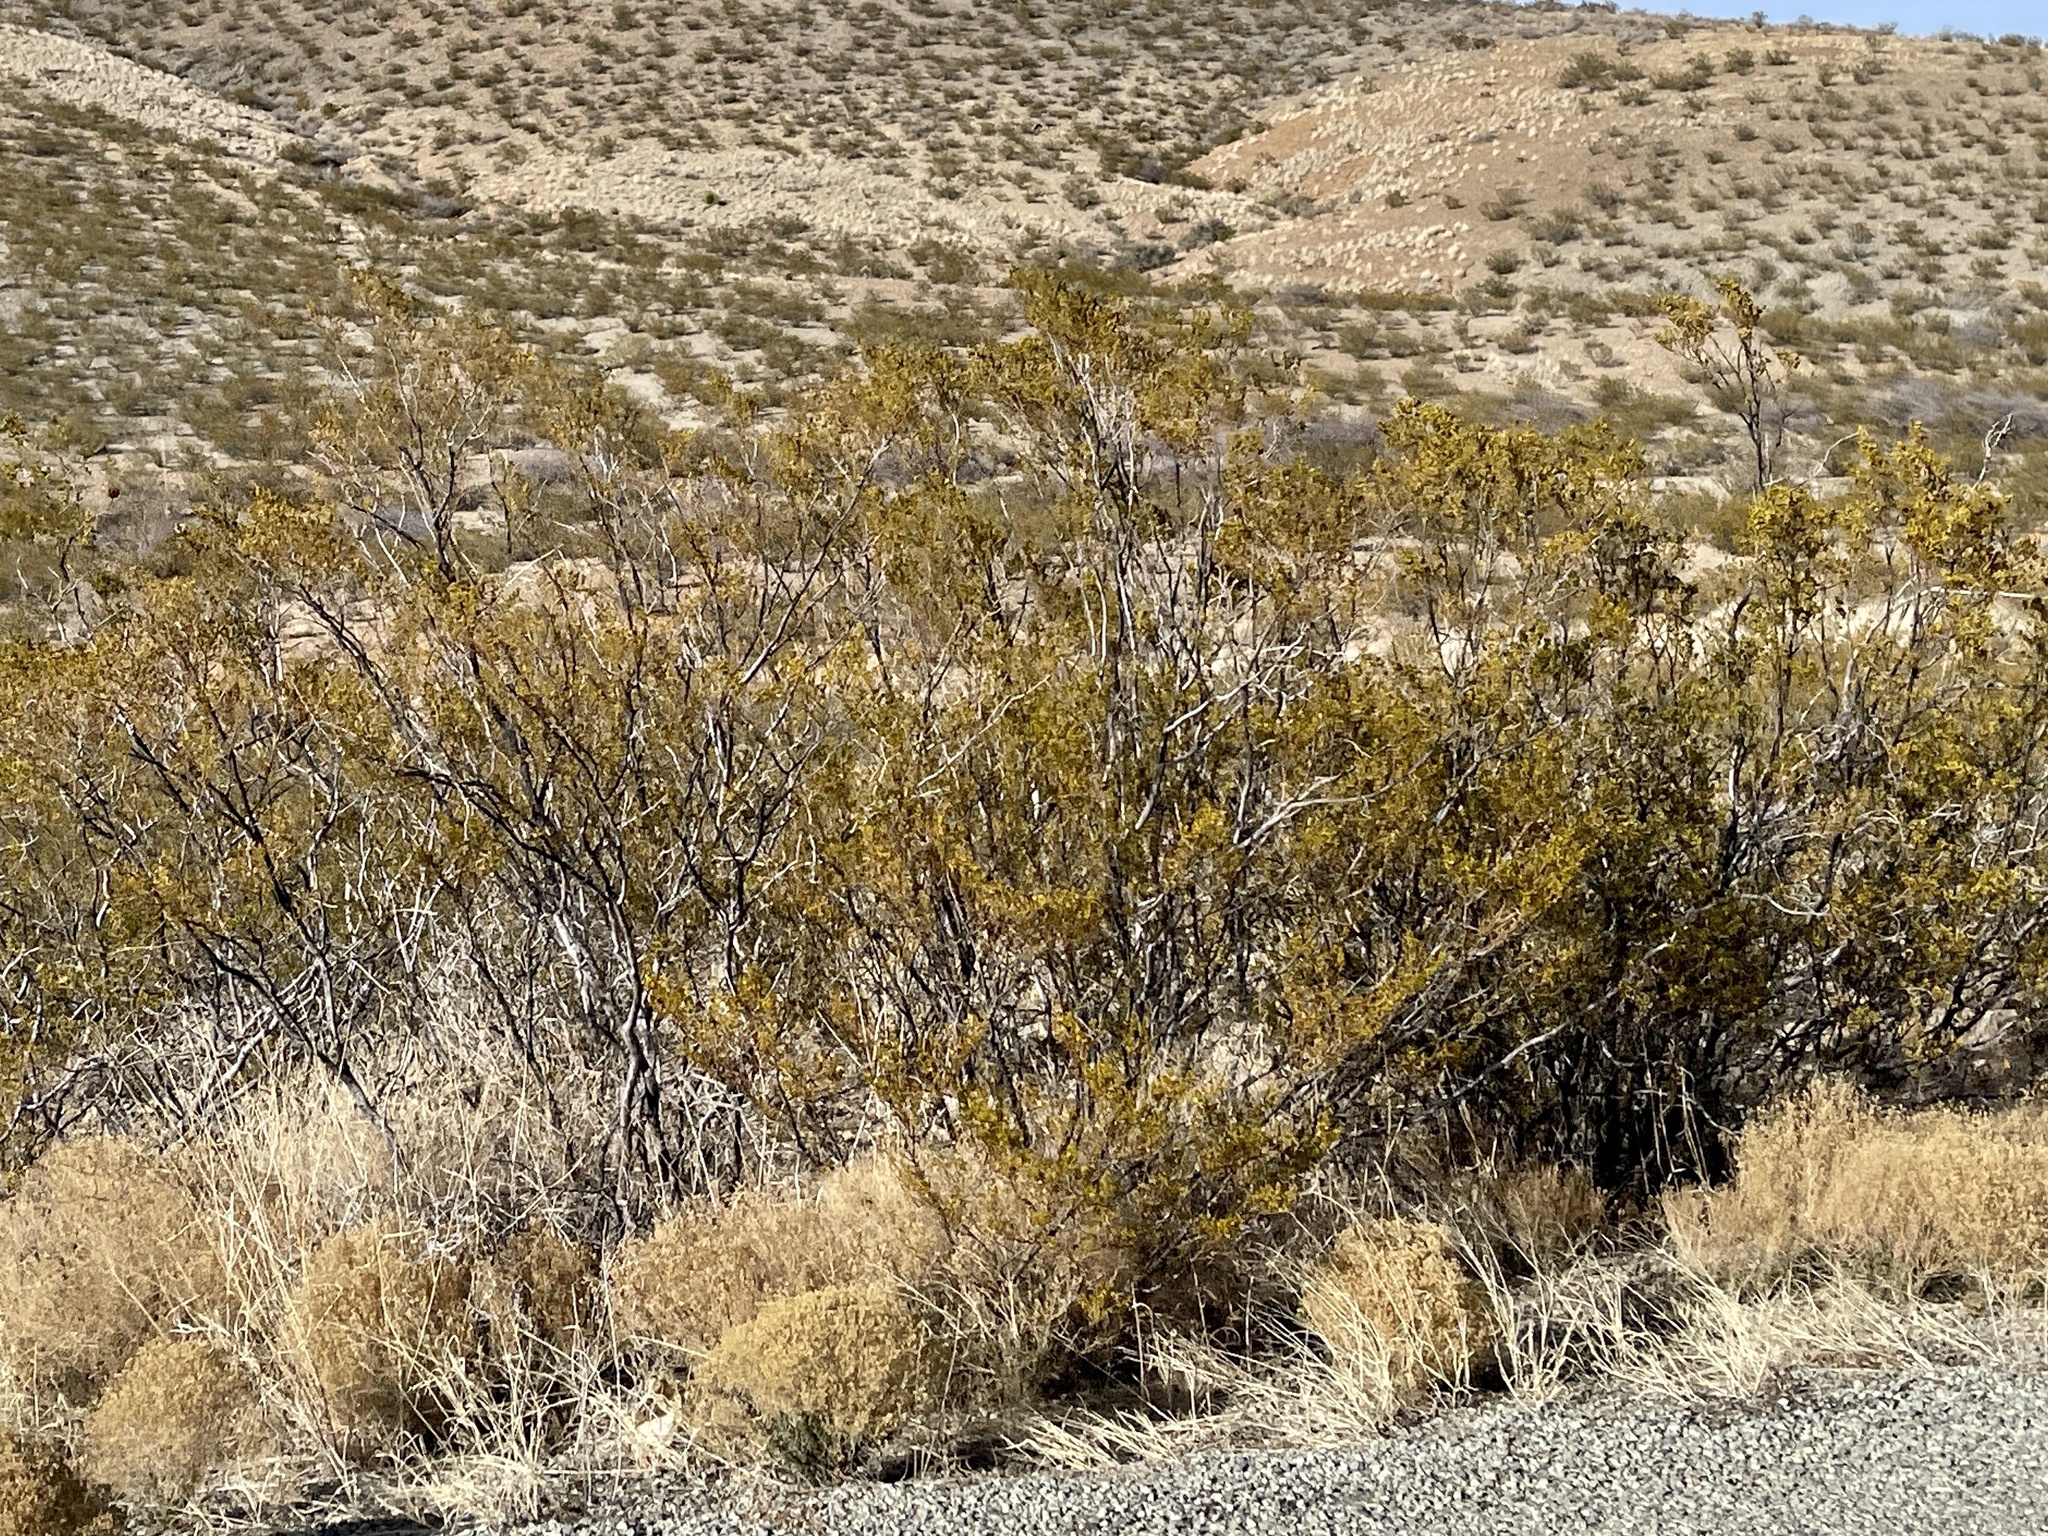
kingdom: Plantae
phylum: Tracheophyta
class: Magnoliopsida
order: Zygophyllales
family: Zygophyllaceae
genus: Larrea
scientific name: Larrea tridentata
